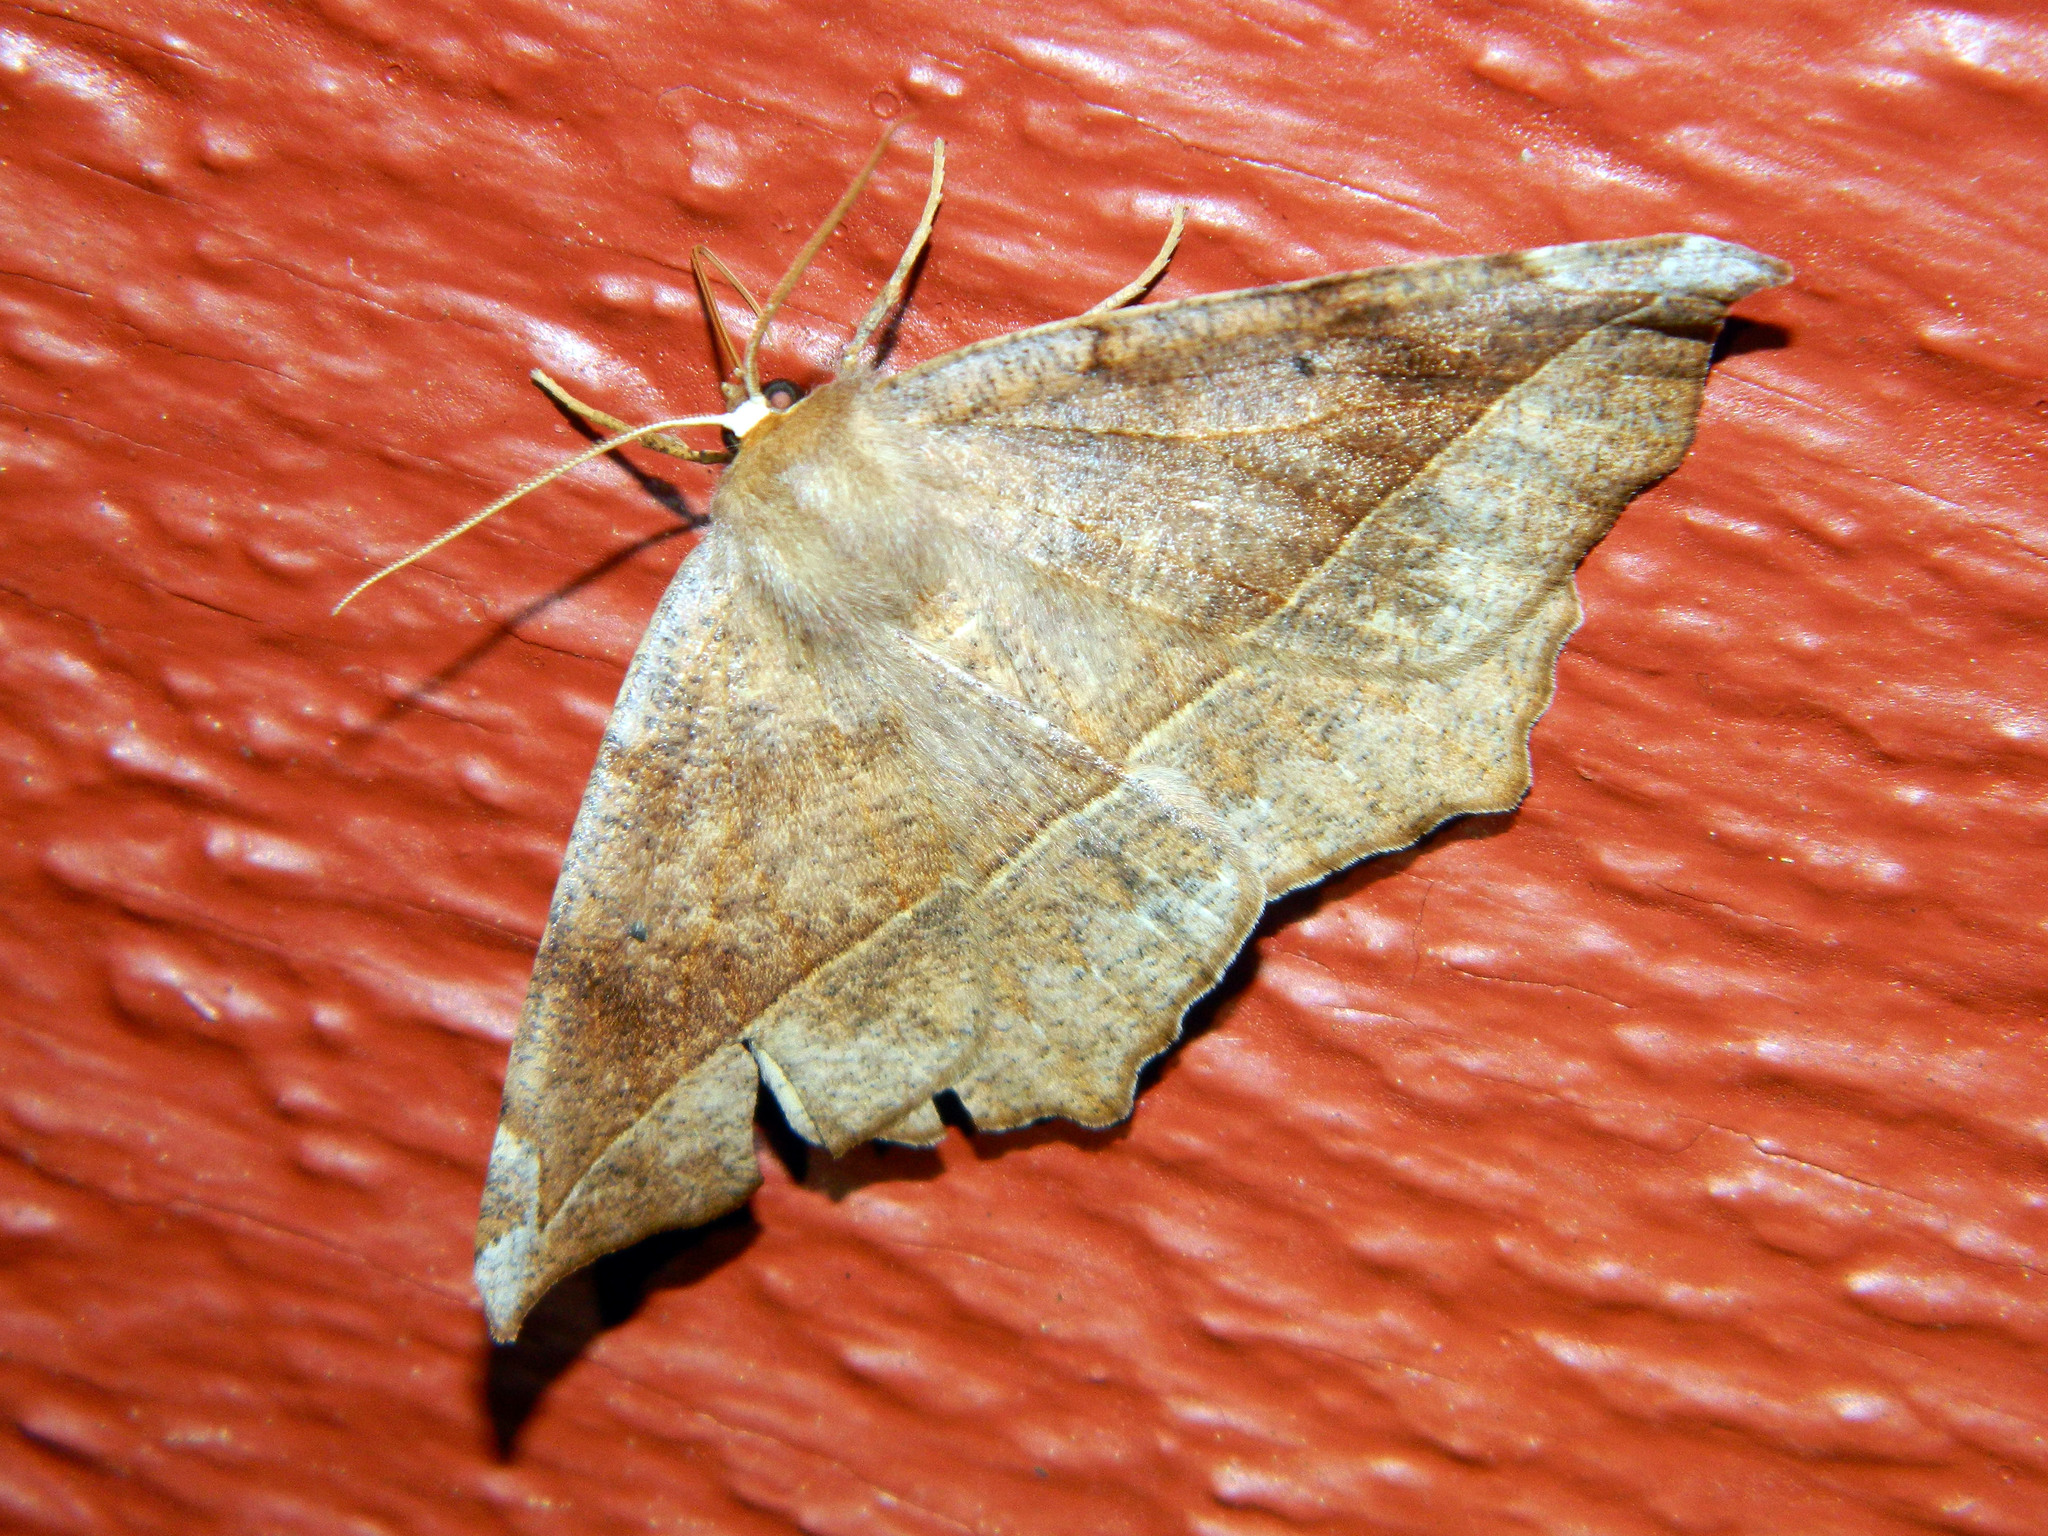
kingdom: Animalia
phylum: Arthropoda
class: Insecta
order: Lepidoptera
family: Geometridae
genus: Eutrapela
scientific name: Eutrapela clemataria
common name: Curved-toothed geometer
